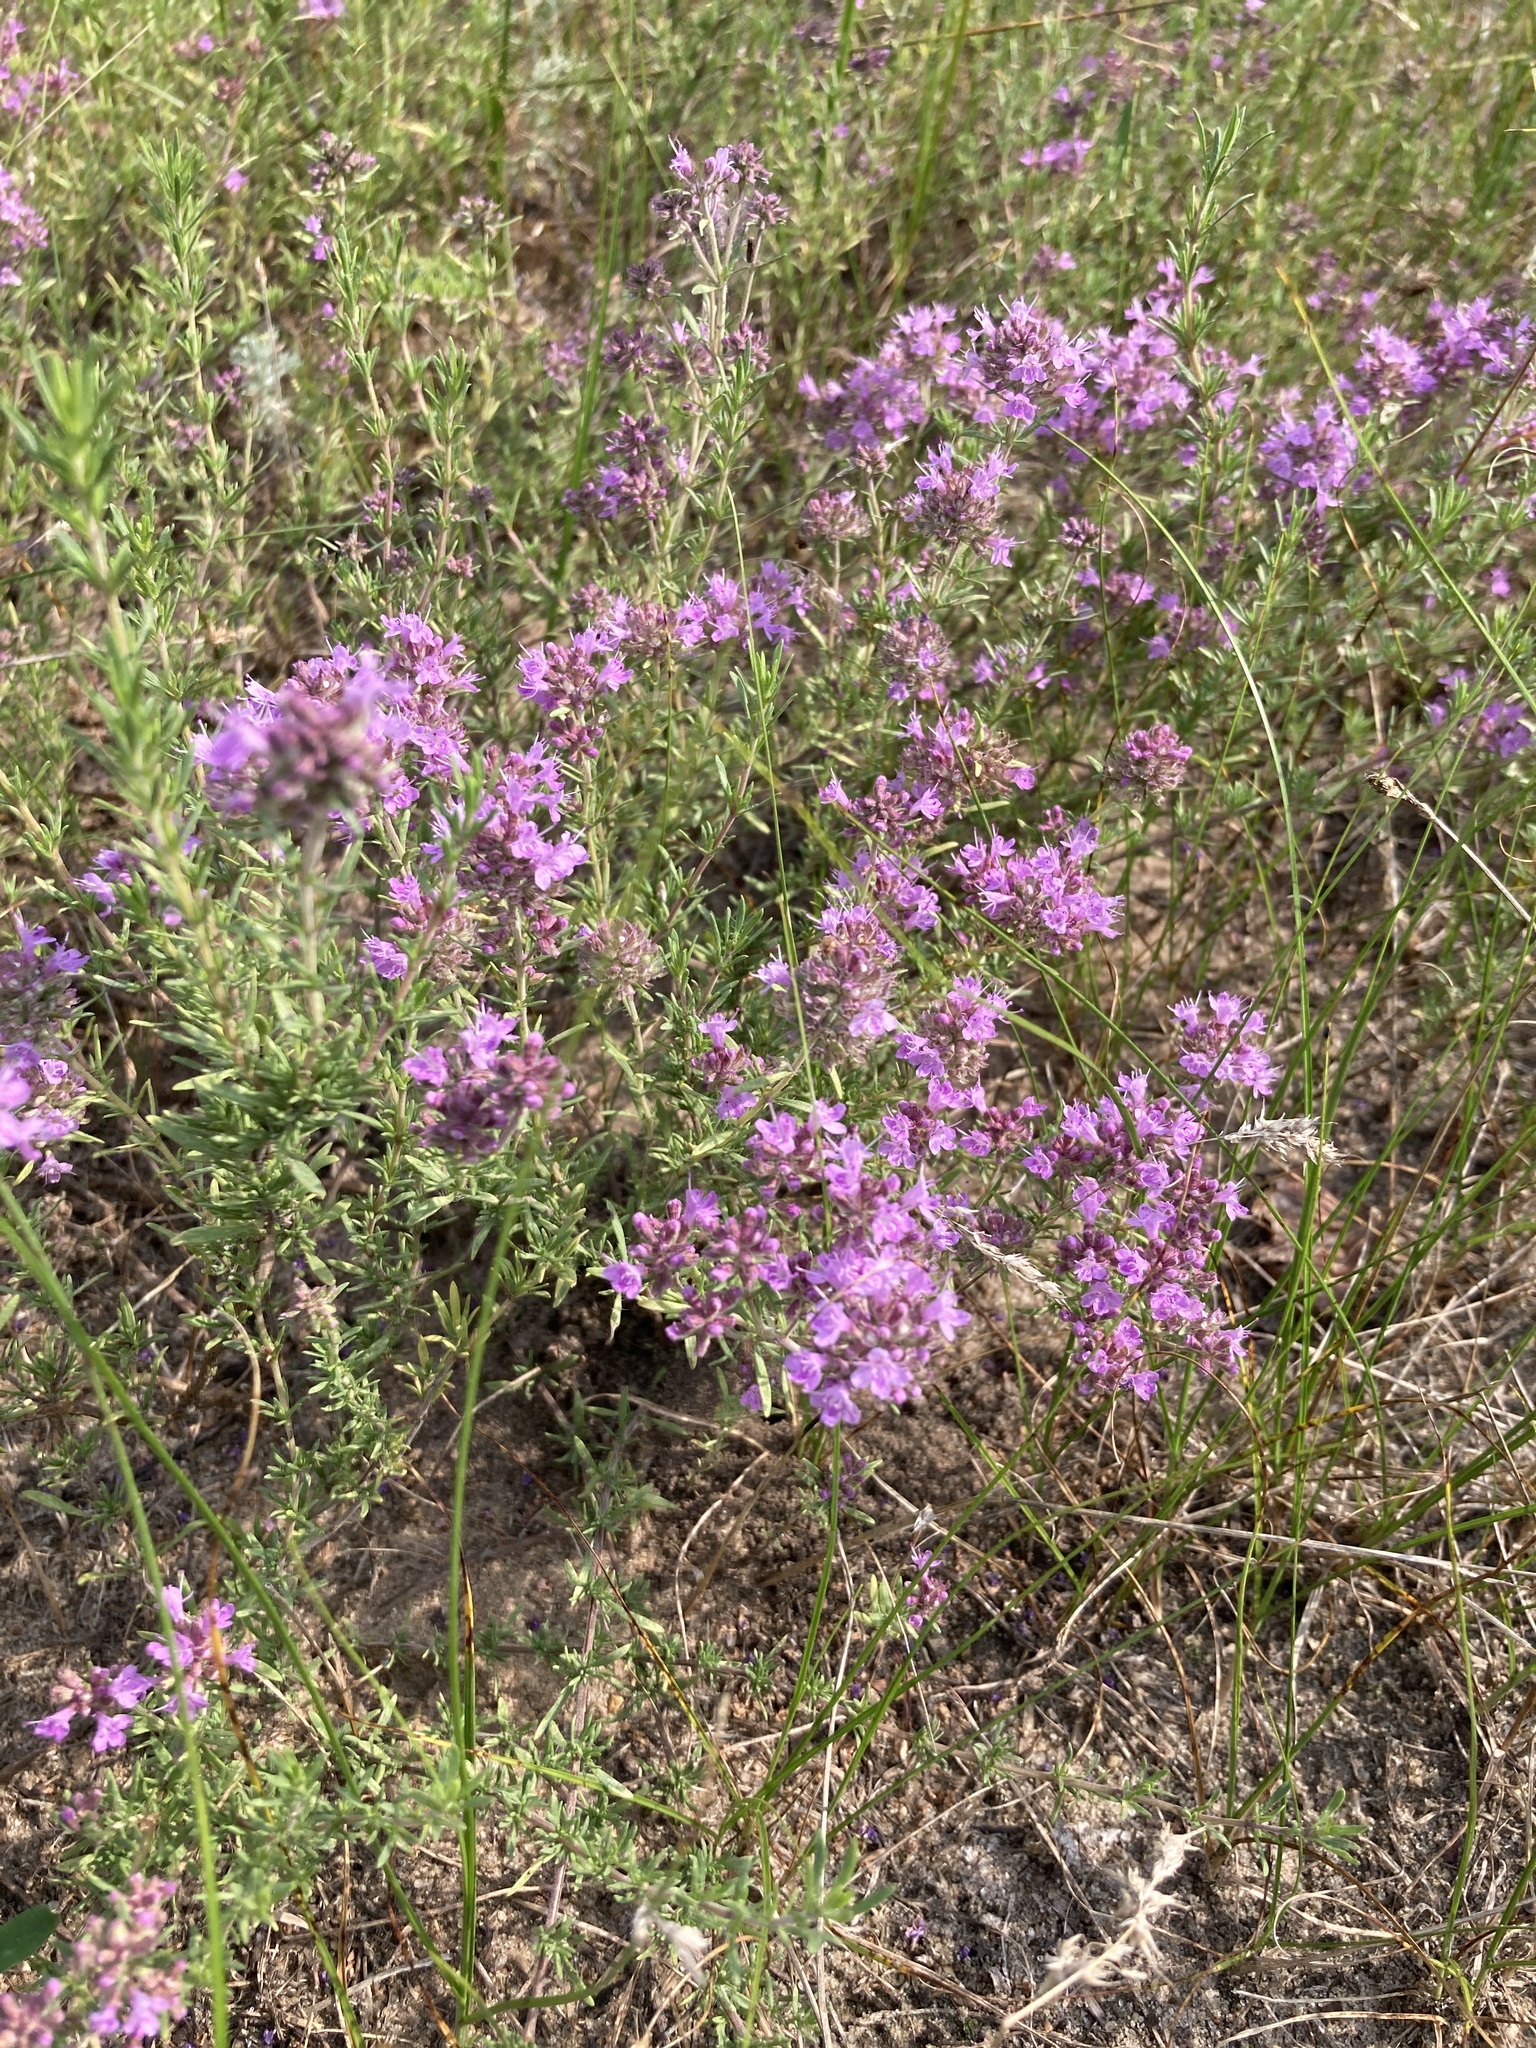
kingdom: Plantae
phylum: Tracheophyta
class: Magnoliopsida
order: Lamiales
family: Lamiaceae
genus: Thymus
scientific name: Thymus pallasianus
